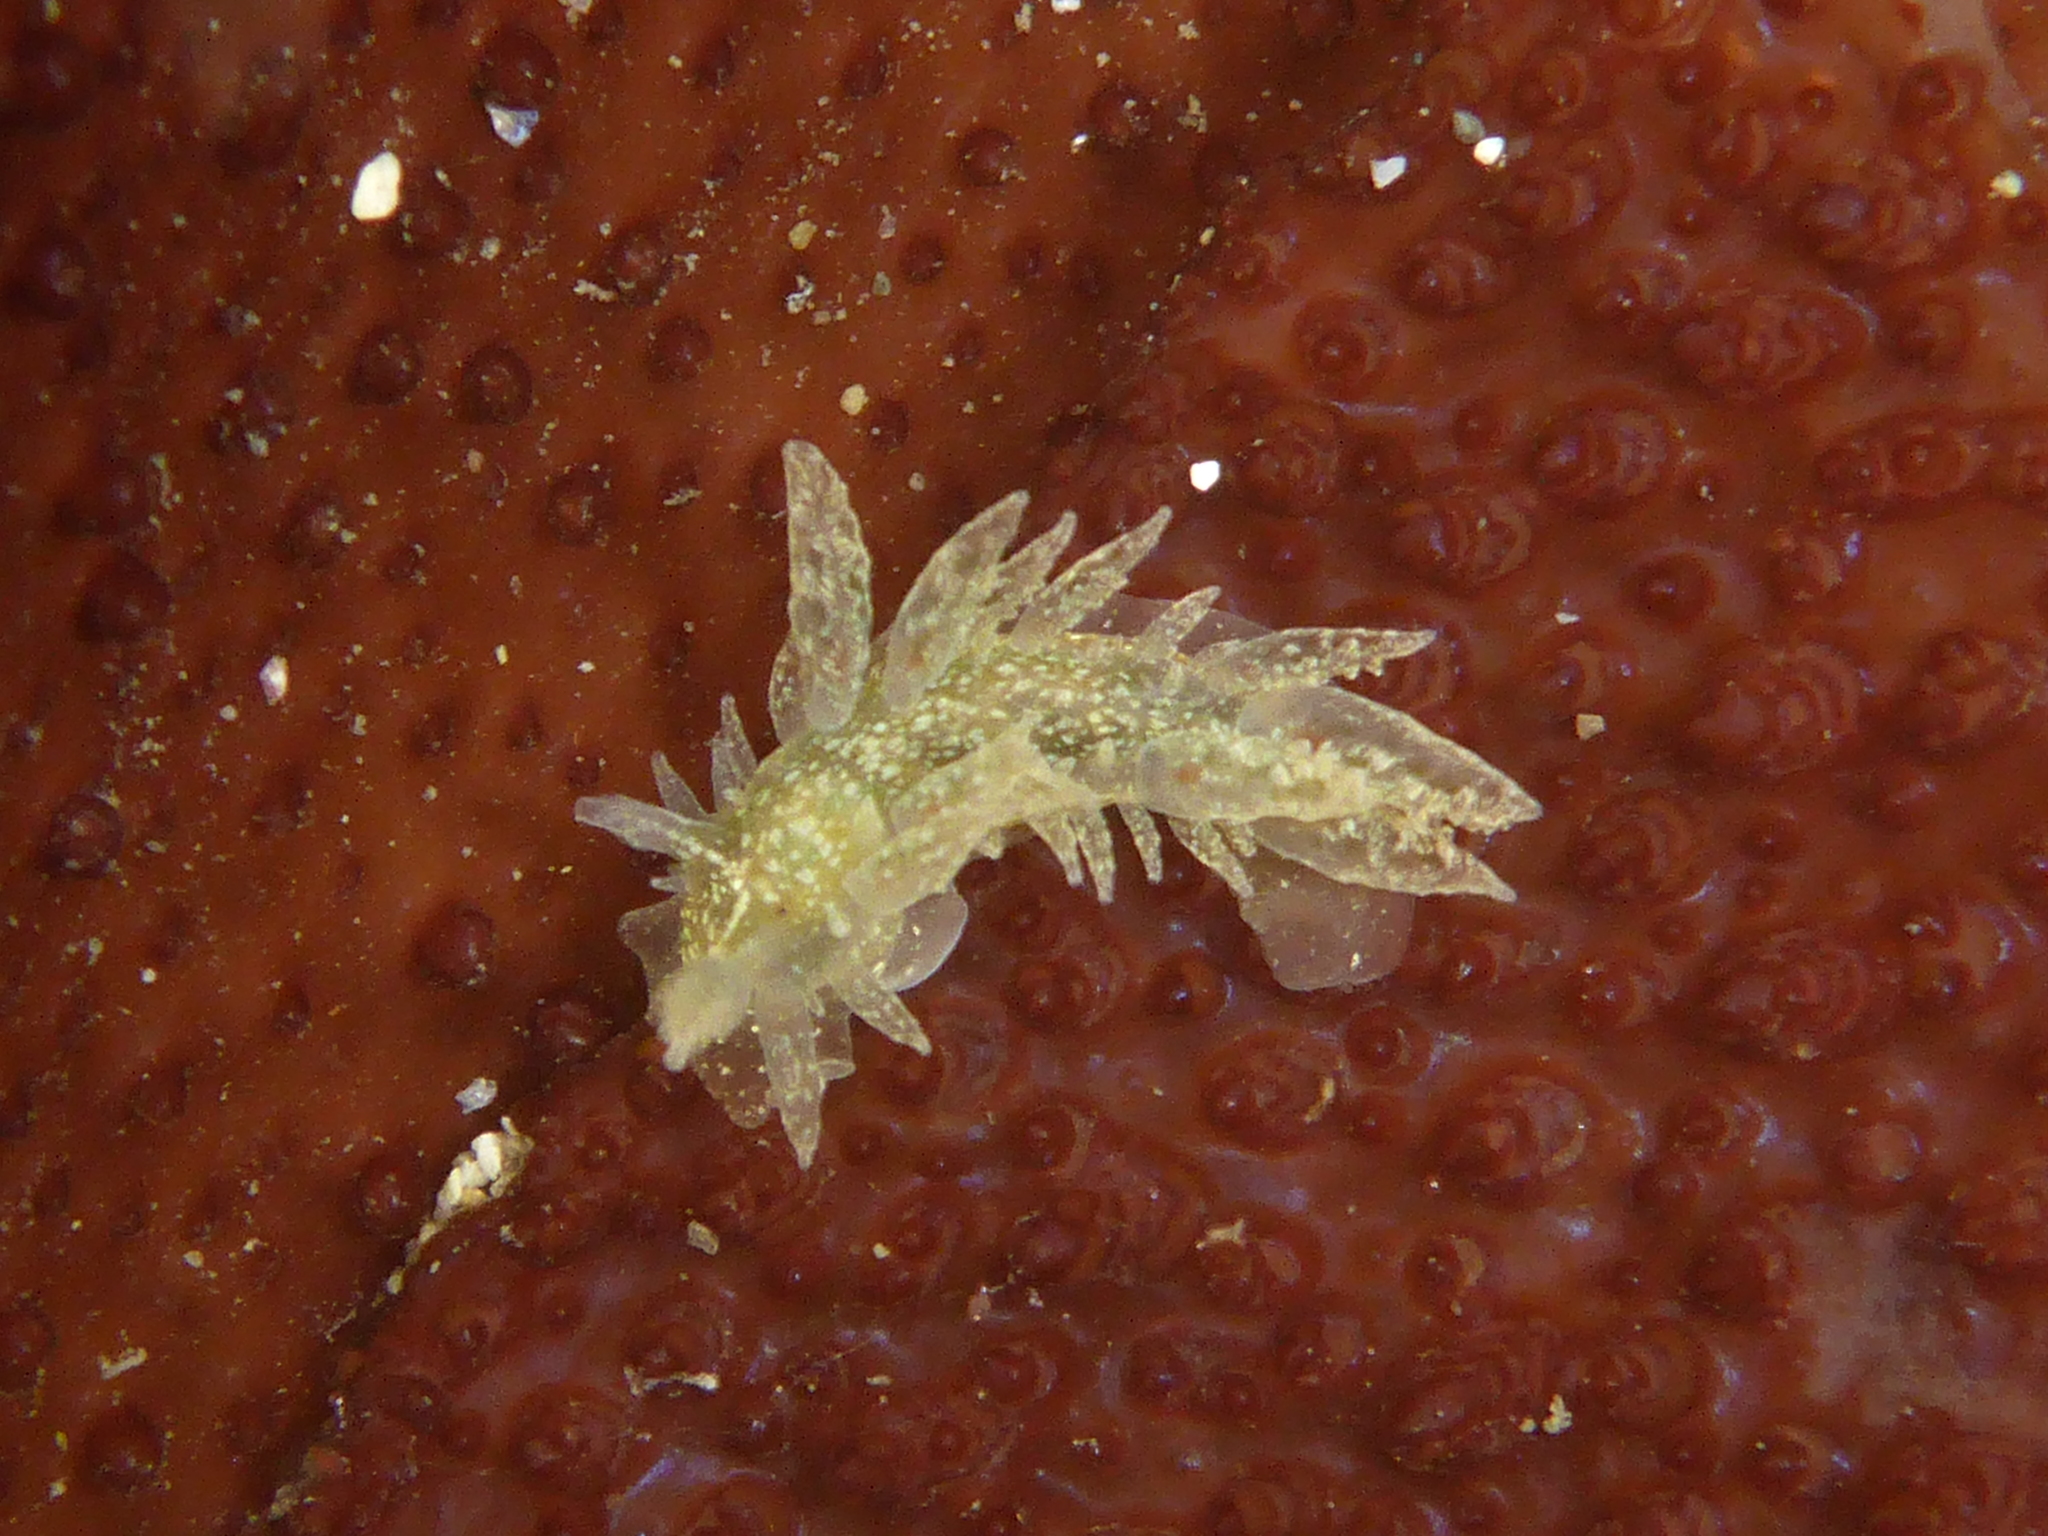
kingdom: Animalia
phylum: Mollusca
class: Gastropoda
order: Nudibranchia
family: Dironidae
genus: Dirona
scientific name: Dirona picta
